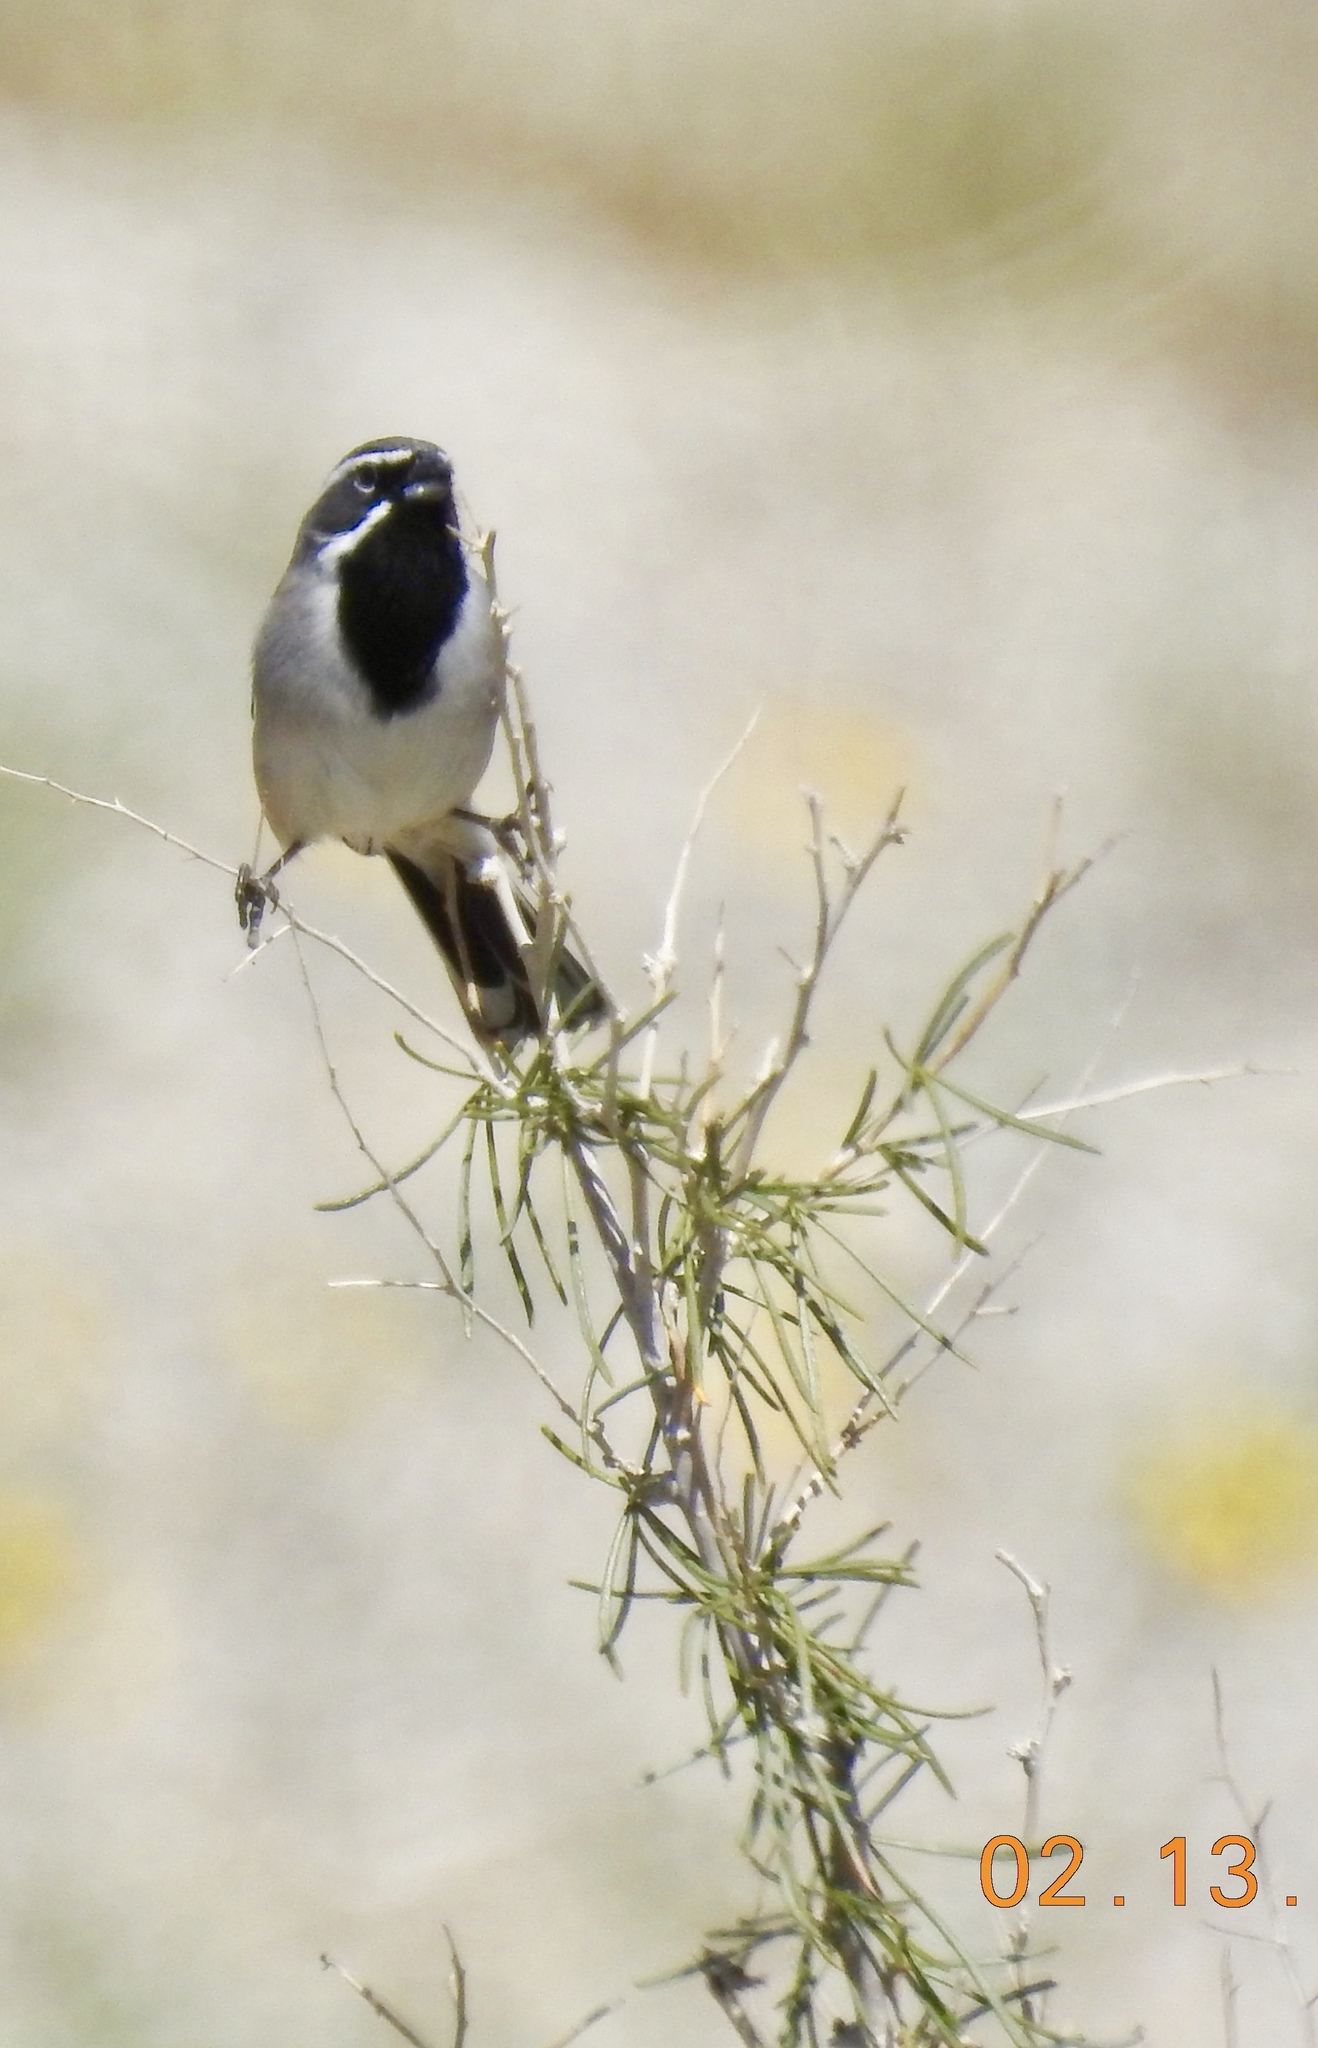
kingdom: Animalia
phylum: Chordata
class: Aves
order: Passeriformes
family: Passerellidae
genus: Amphispiza
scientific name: Amphispiza bilineata
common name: Black-throated sparrow
